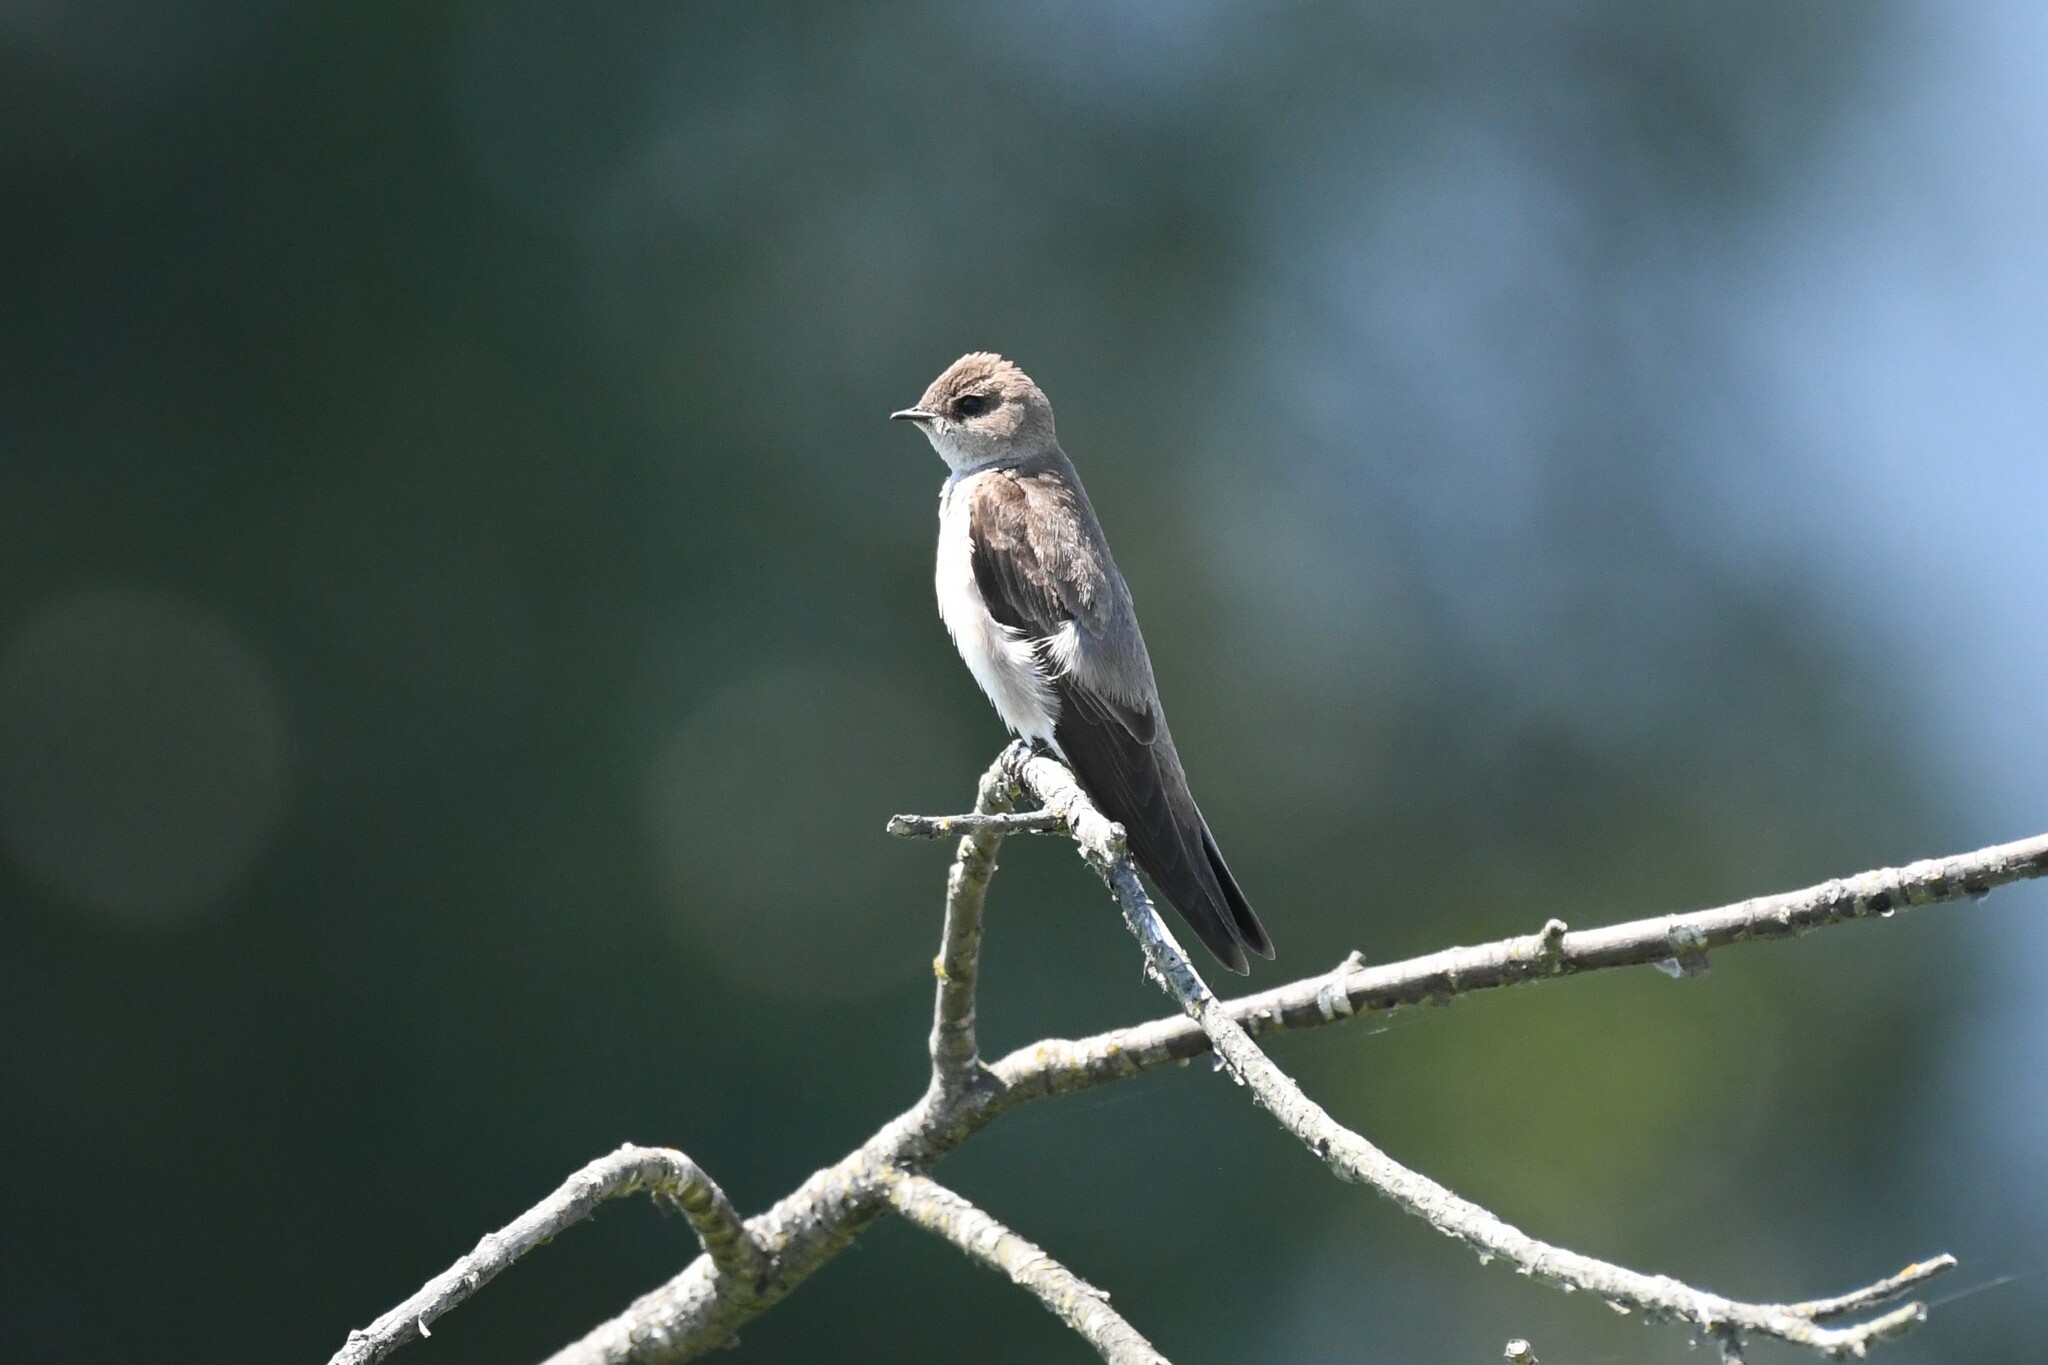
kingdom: Animalia
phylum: Chordata
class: Aves
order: Passeriformes
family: Hirundinidae
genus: Stelgidopteryx
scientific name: Stelgidopteryx serripennis
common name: Northern rough-winged swallow
